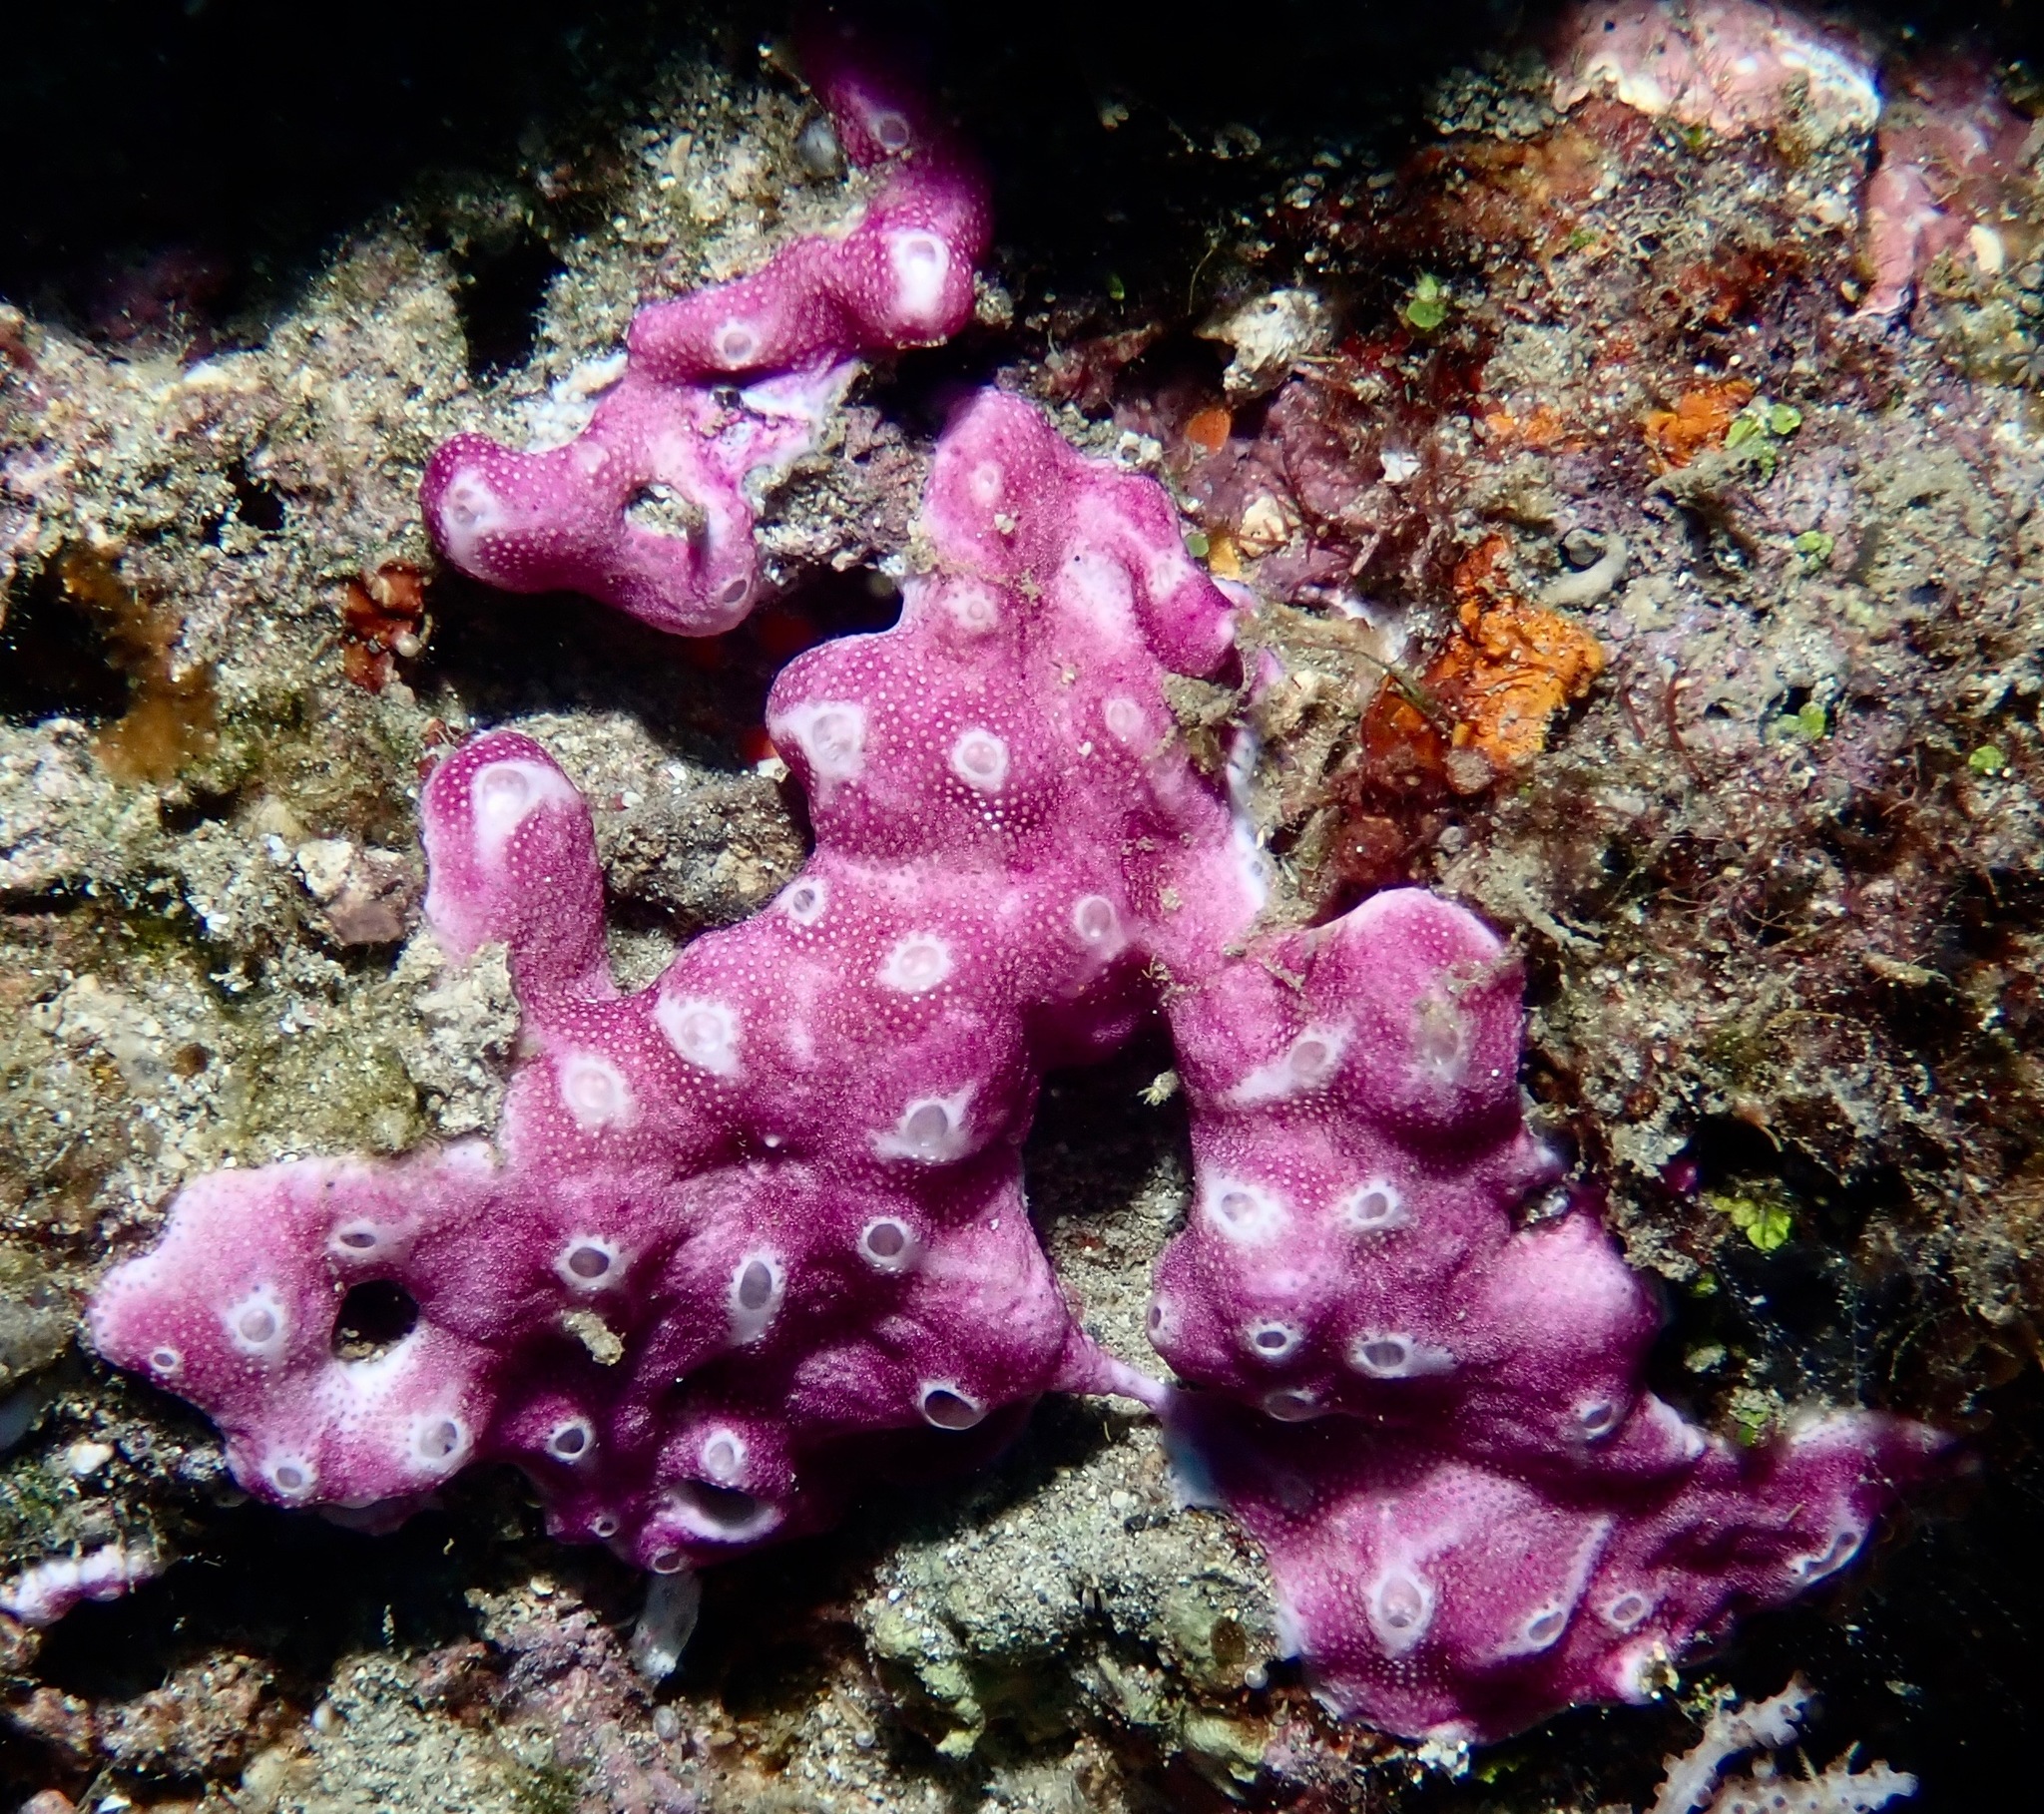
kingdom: Animalia
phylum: Chordata
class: Ascidiacea
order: Aplousobranchia
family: Didemnidae
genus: Didemnum
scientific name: Didemnum membranaceum
